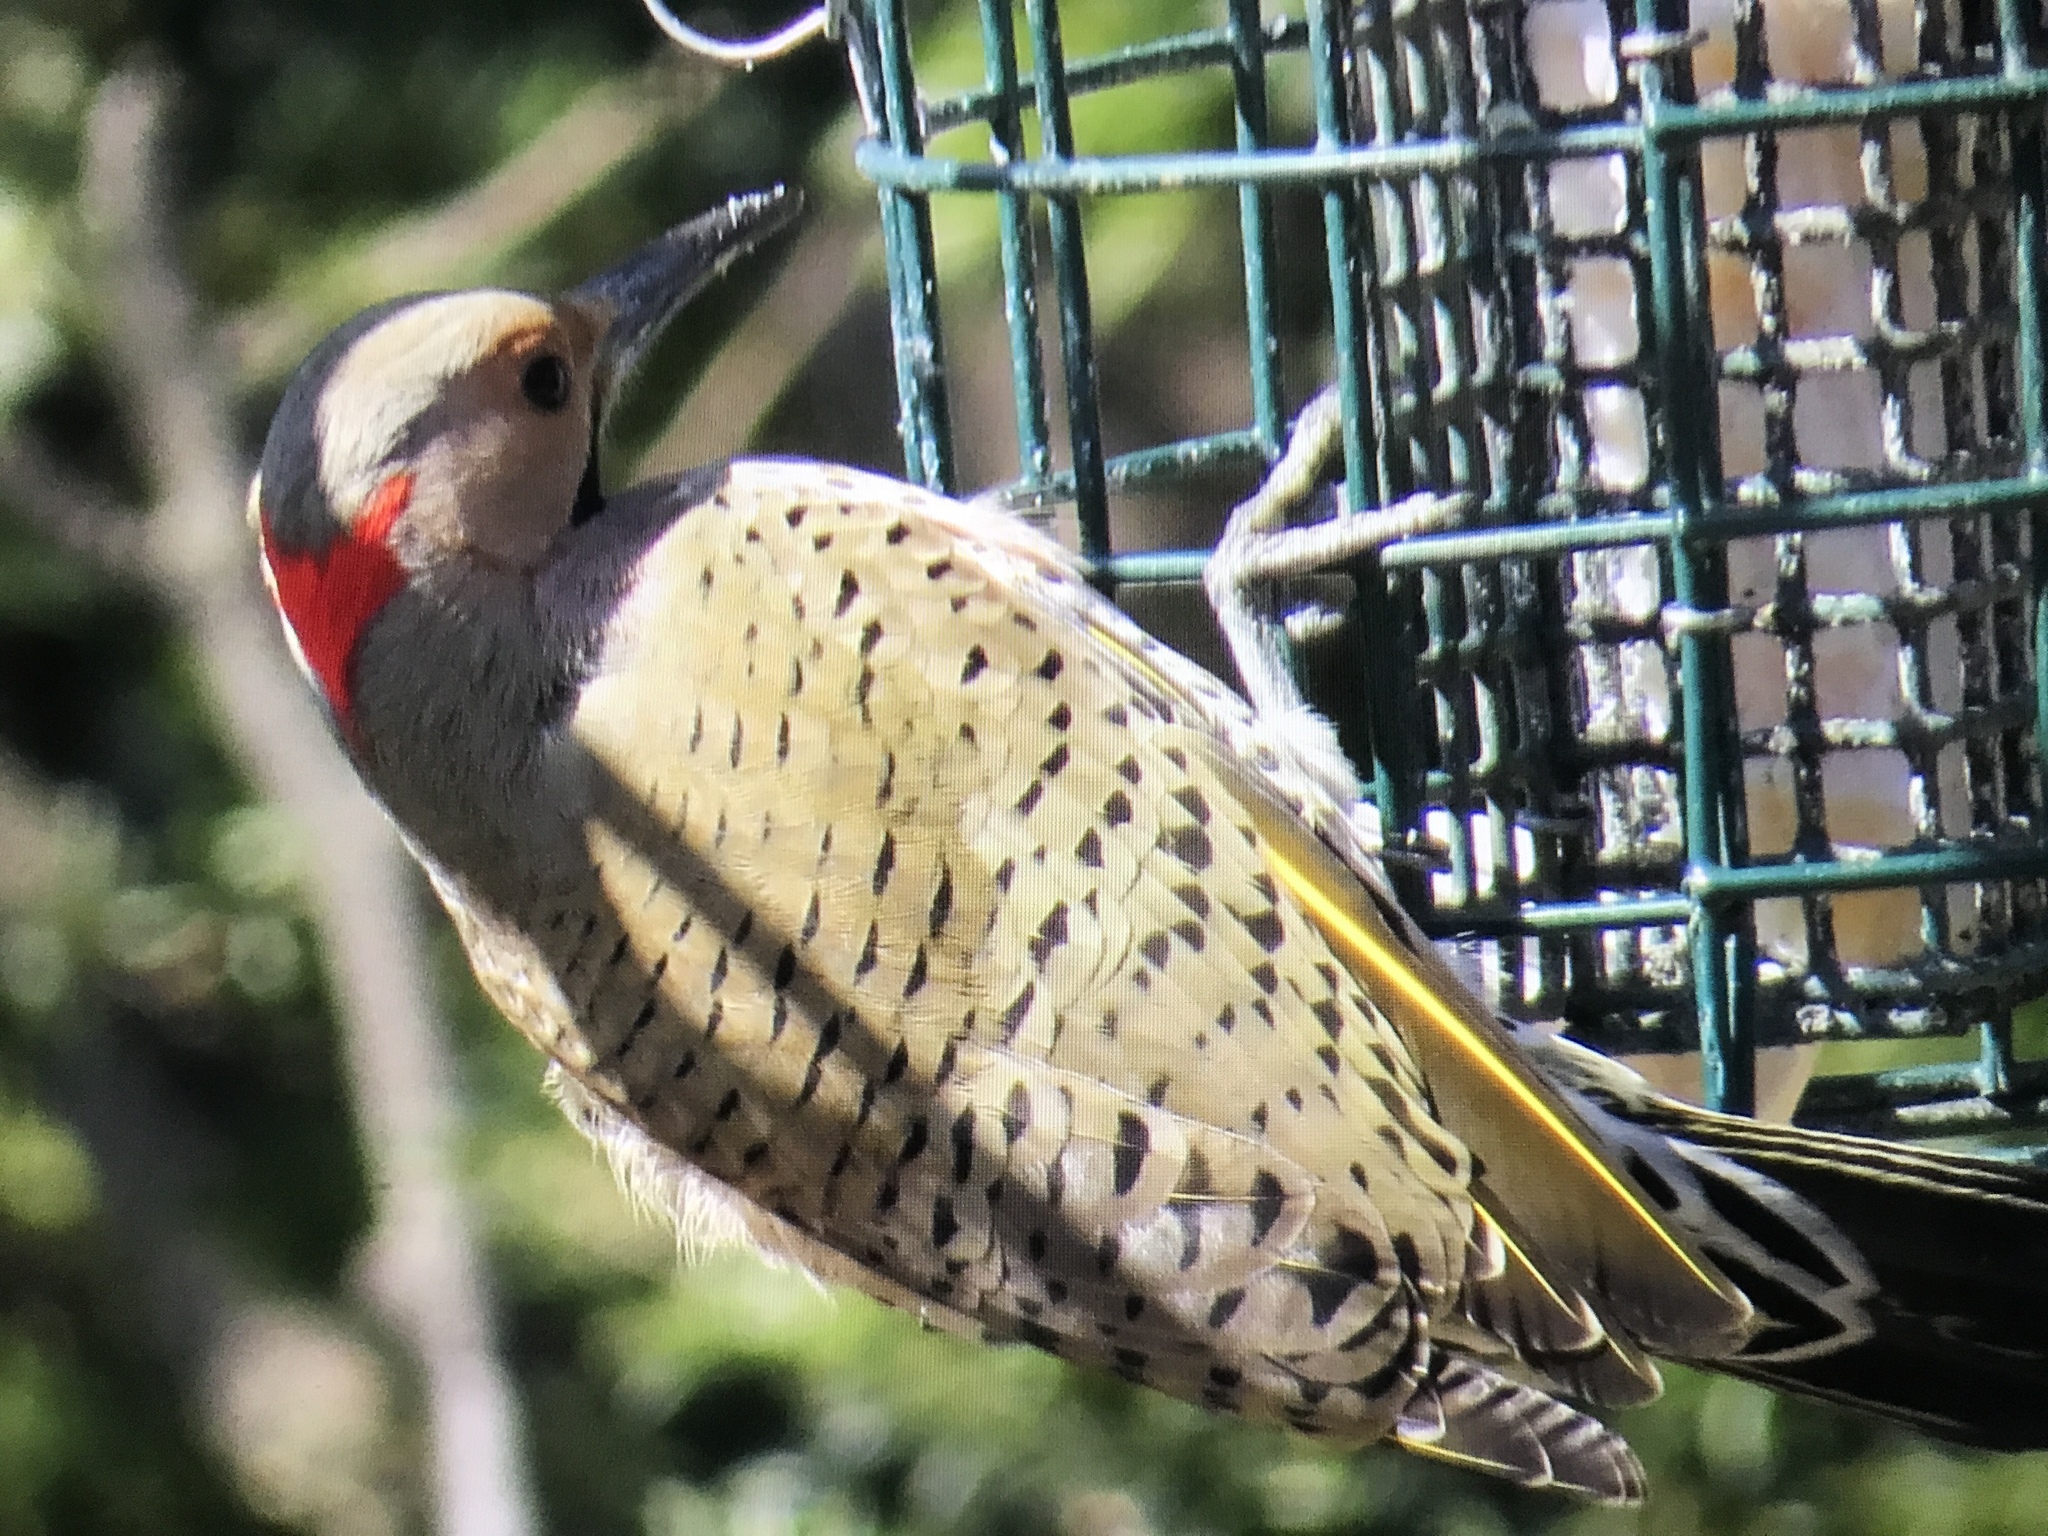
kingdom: Animalia
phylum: Chordata
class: Aves
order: Piciformes
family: Picidae
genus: Colaptes
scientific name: Colaptes auratus
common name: Northern flicker
